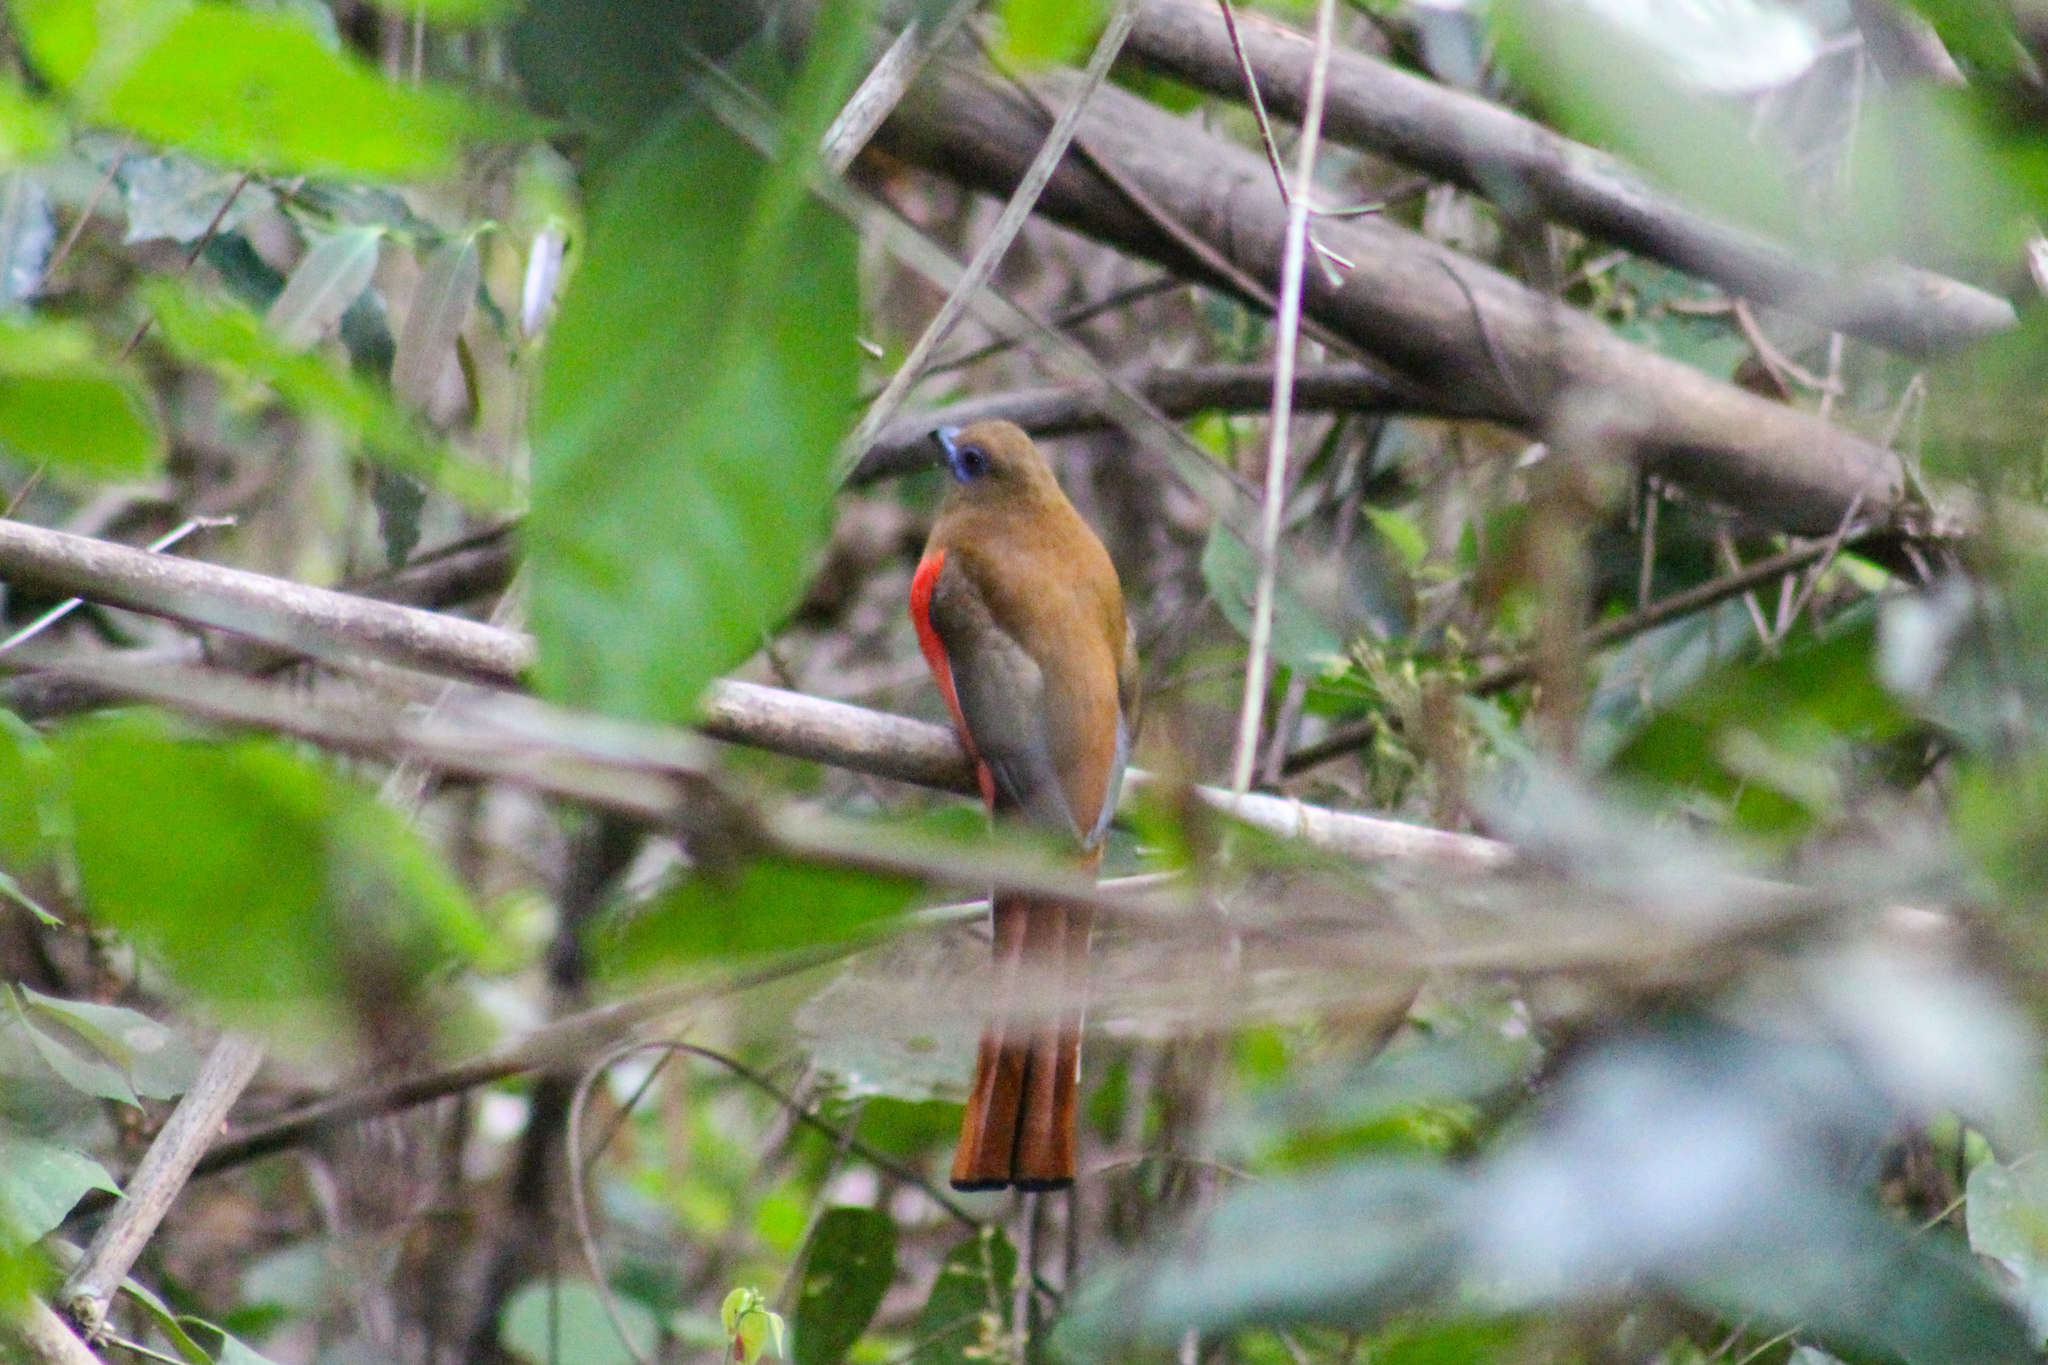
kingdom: Animalia
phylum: Chordata
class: Aves
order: Trogoniformes
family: Trogonidae
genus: Harpactes
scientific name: Harpactes erythrocephalus
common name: Red-headed trogon
